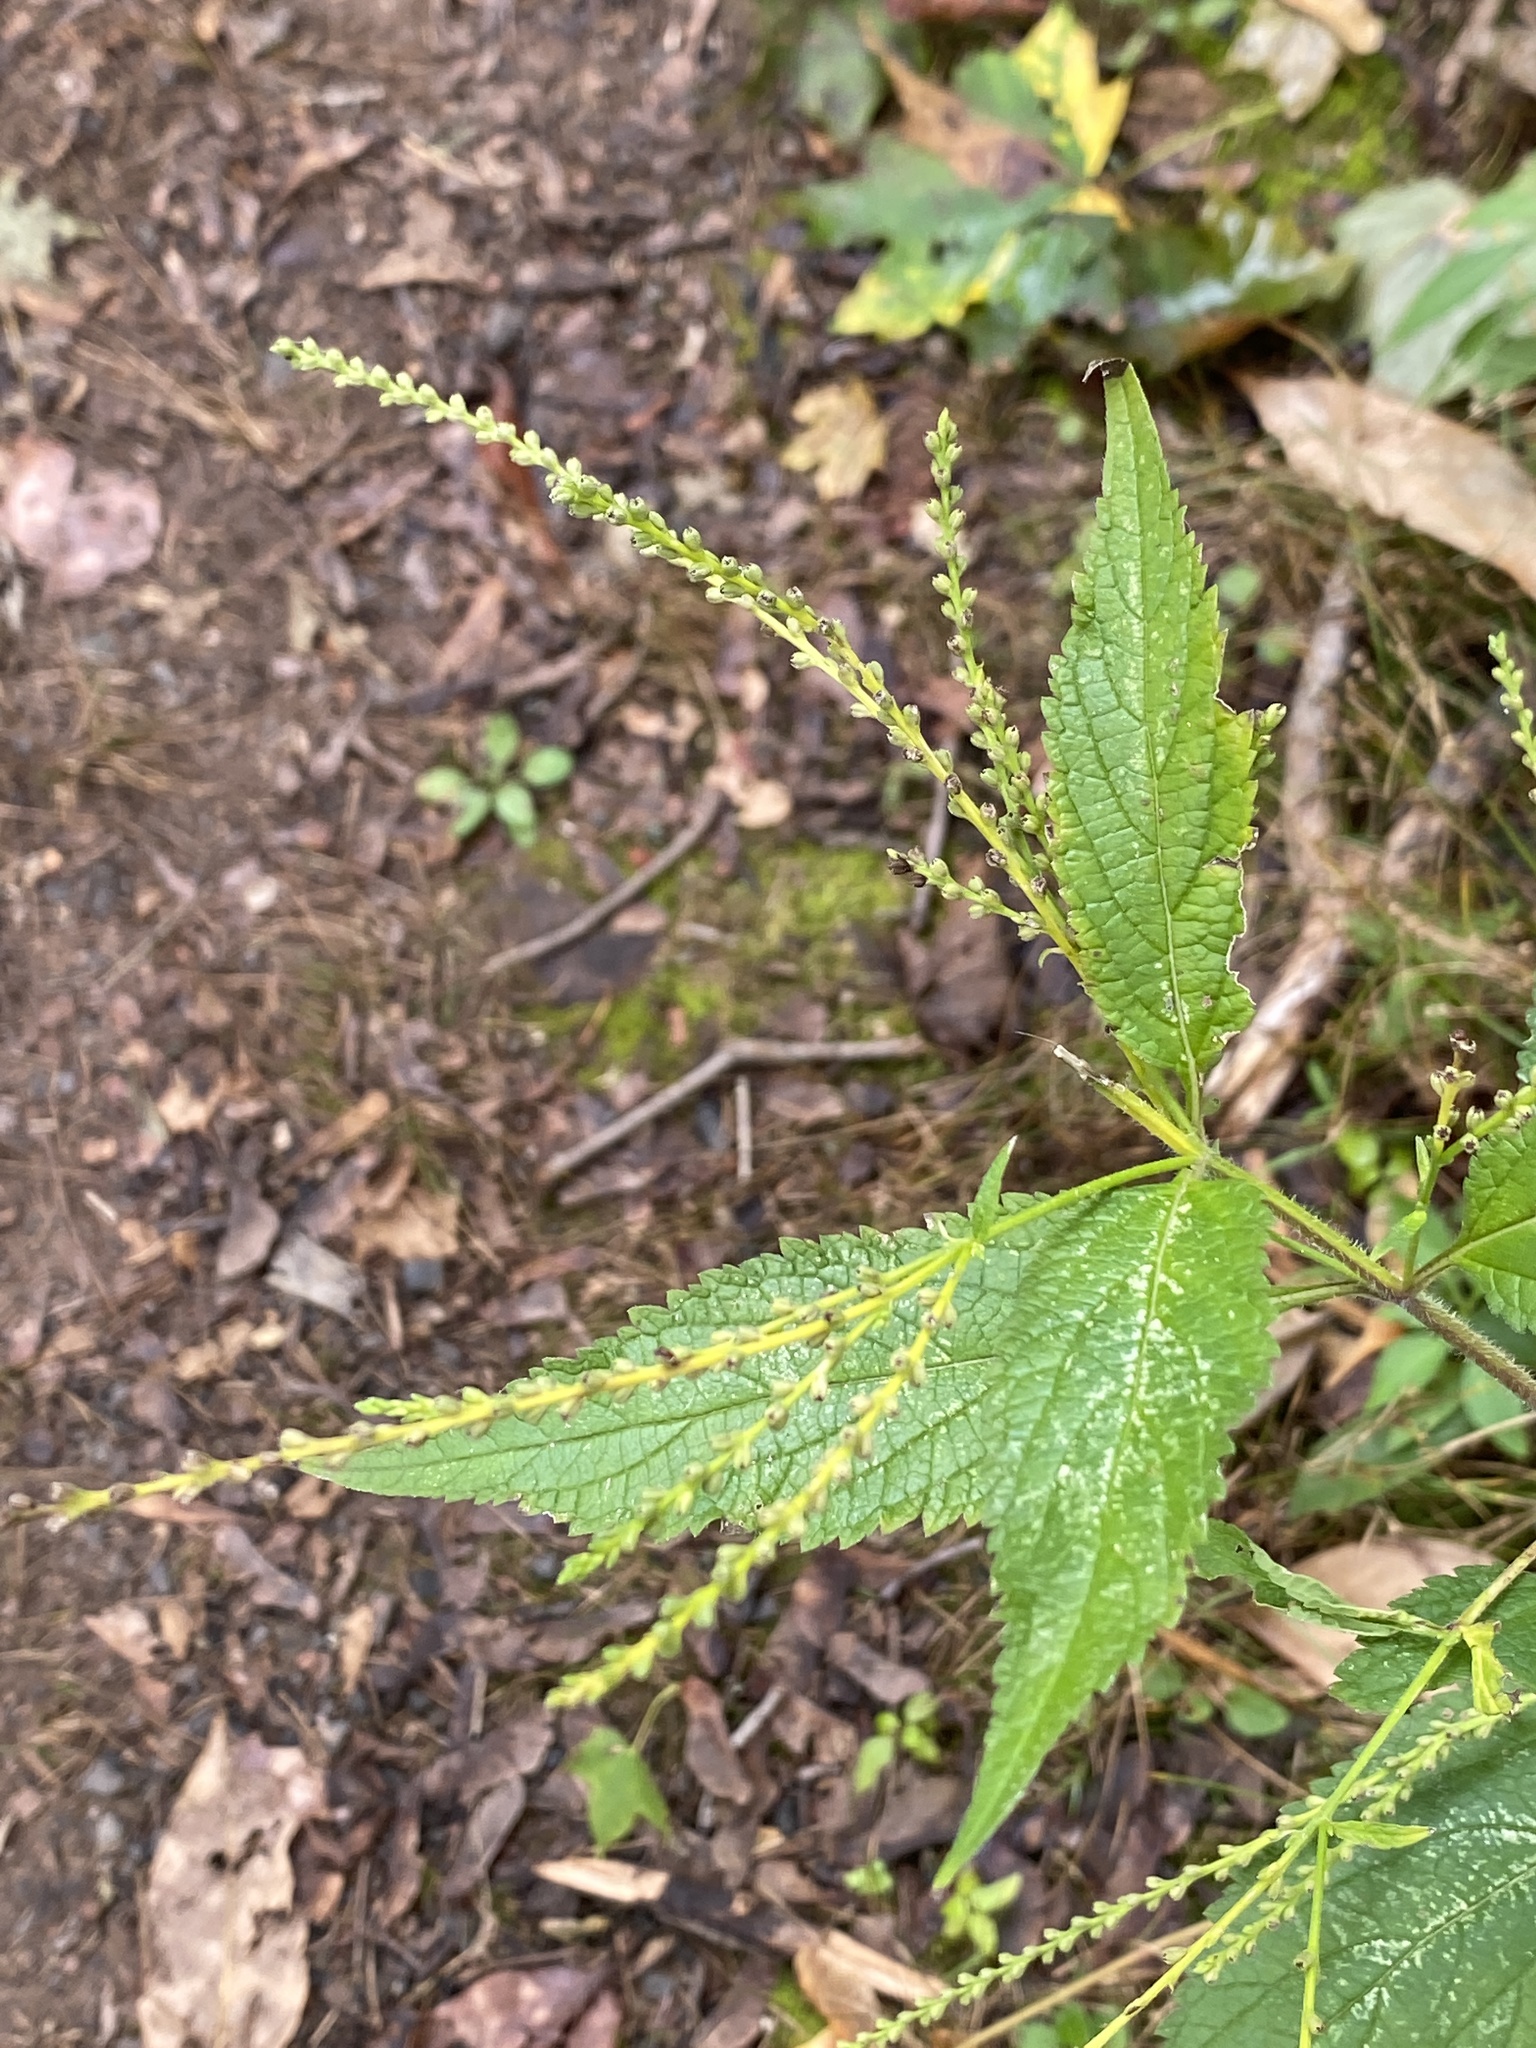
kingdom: Plantae
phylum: Tracheophyta
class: Magnoliopsida
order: Lamiales
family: Verbenaceae
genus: Verbena
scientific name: Verbena urticifolia
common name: Nettle-leaved vervain
